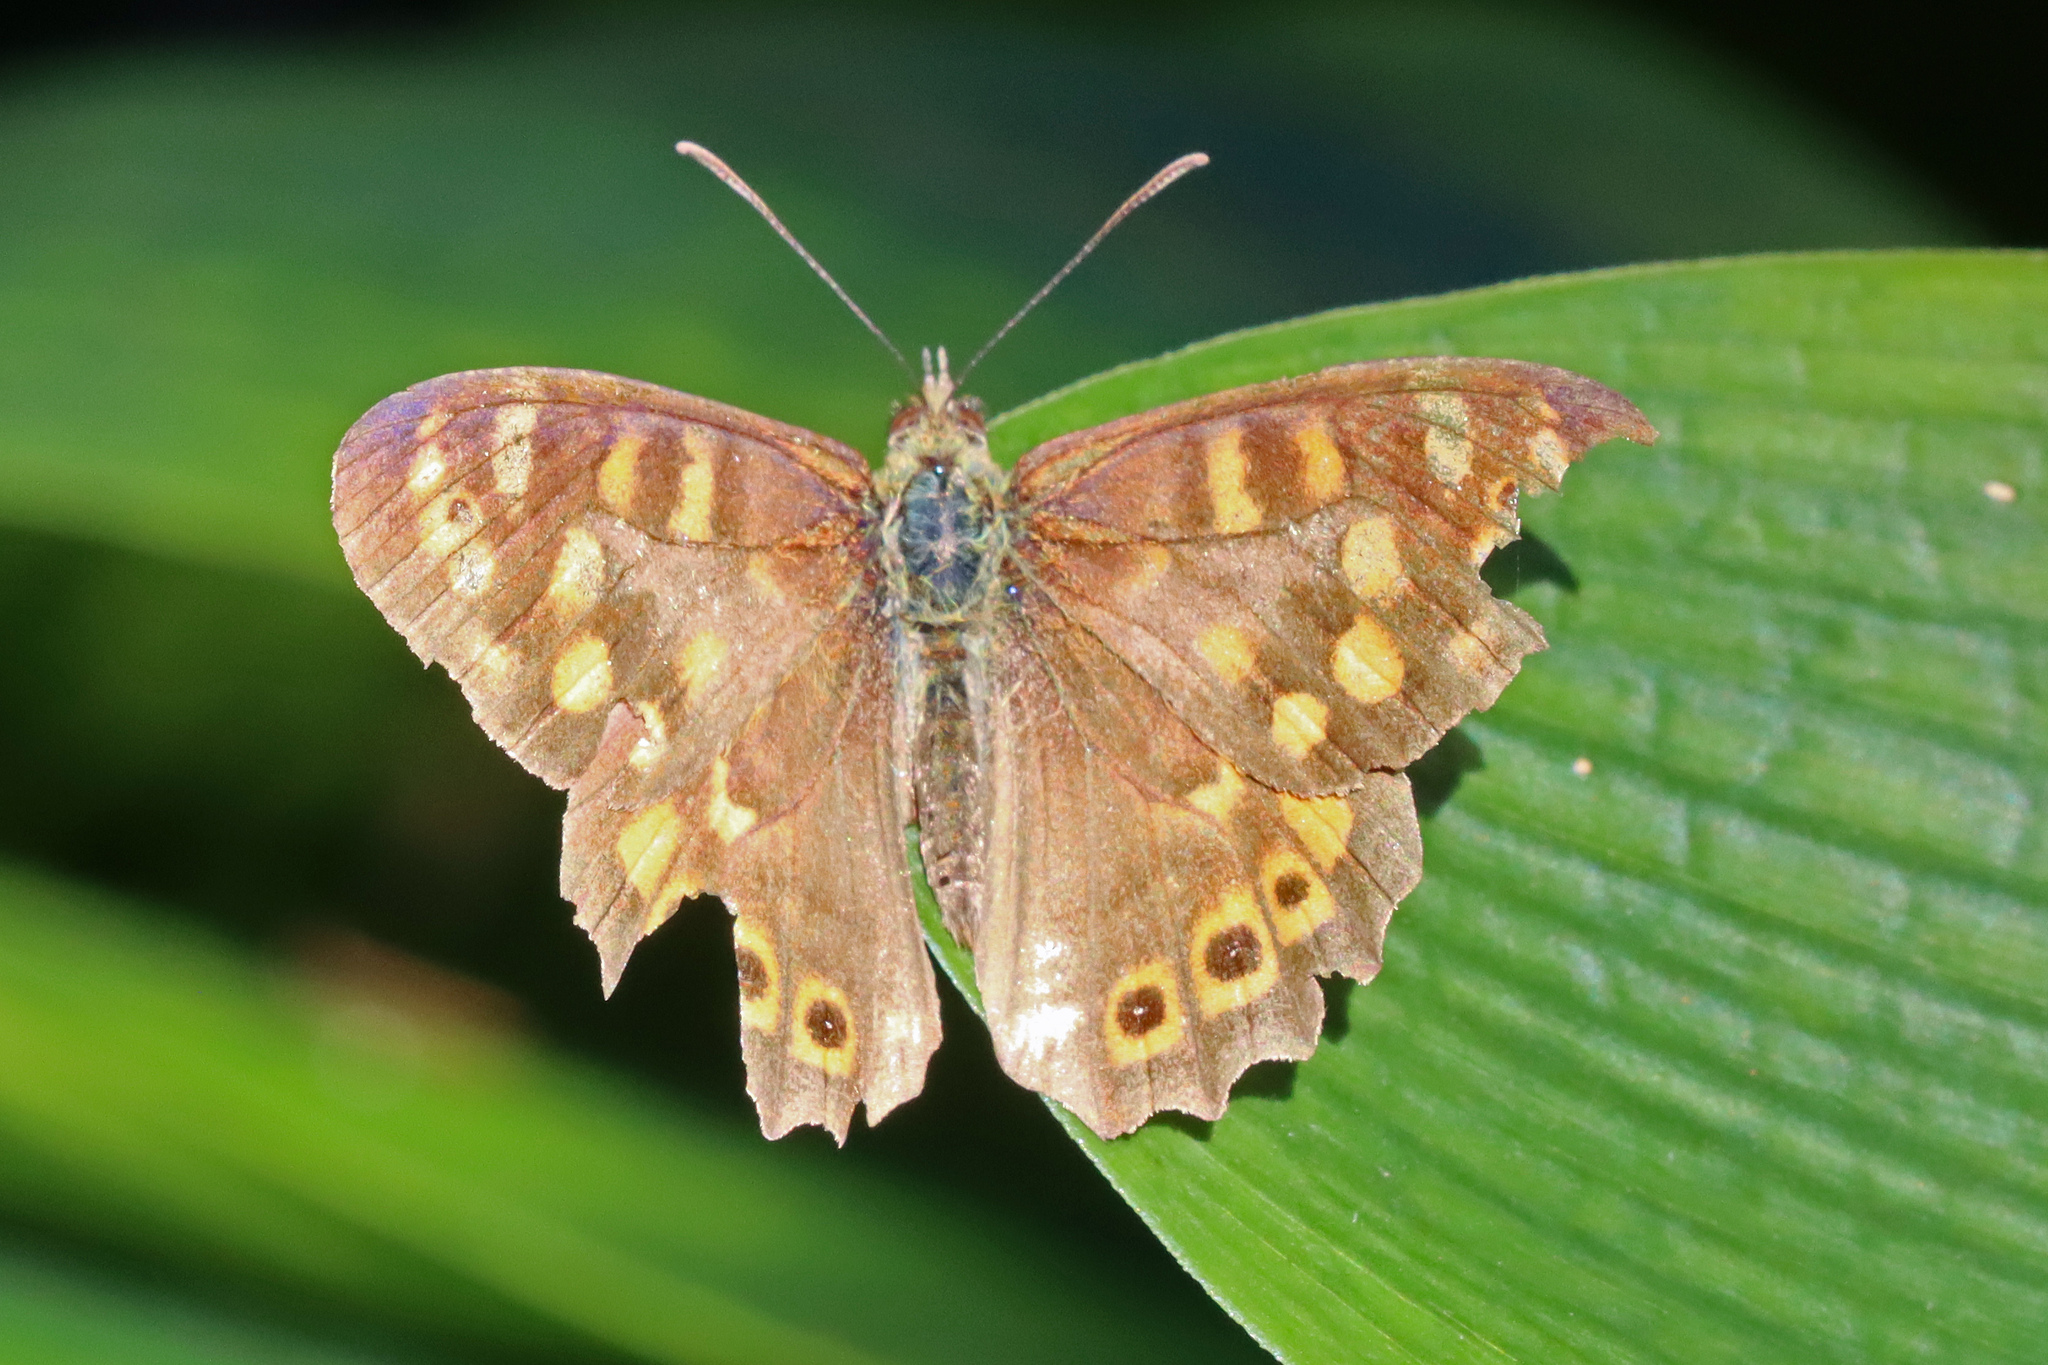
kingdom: Animalia
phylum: Arthropoda
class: Insecta
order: Lepidoptera
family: Nymphalidae
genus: Pararge
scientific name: Pararge aegeria
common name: Speckled wood
